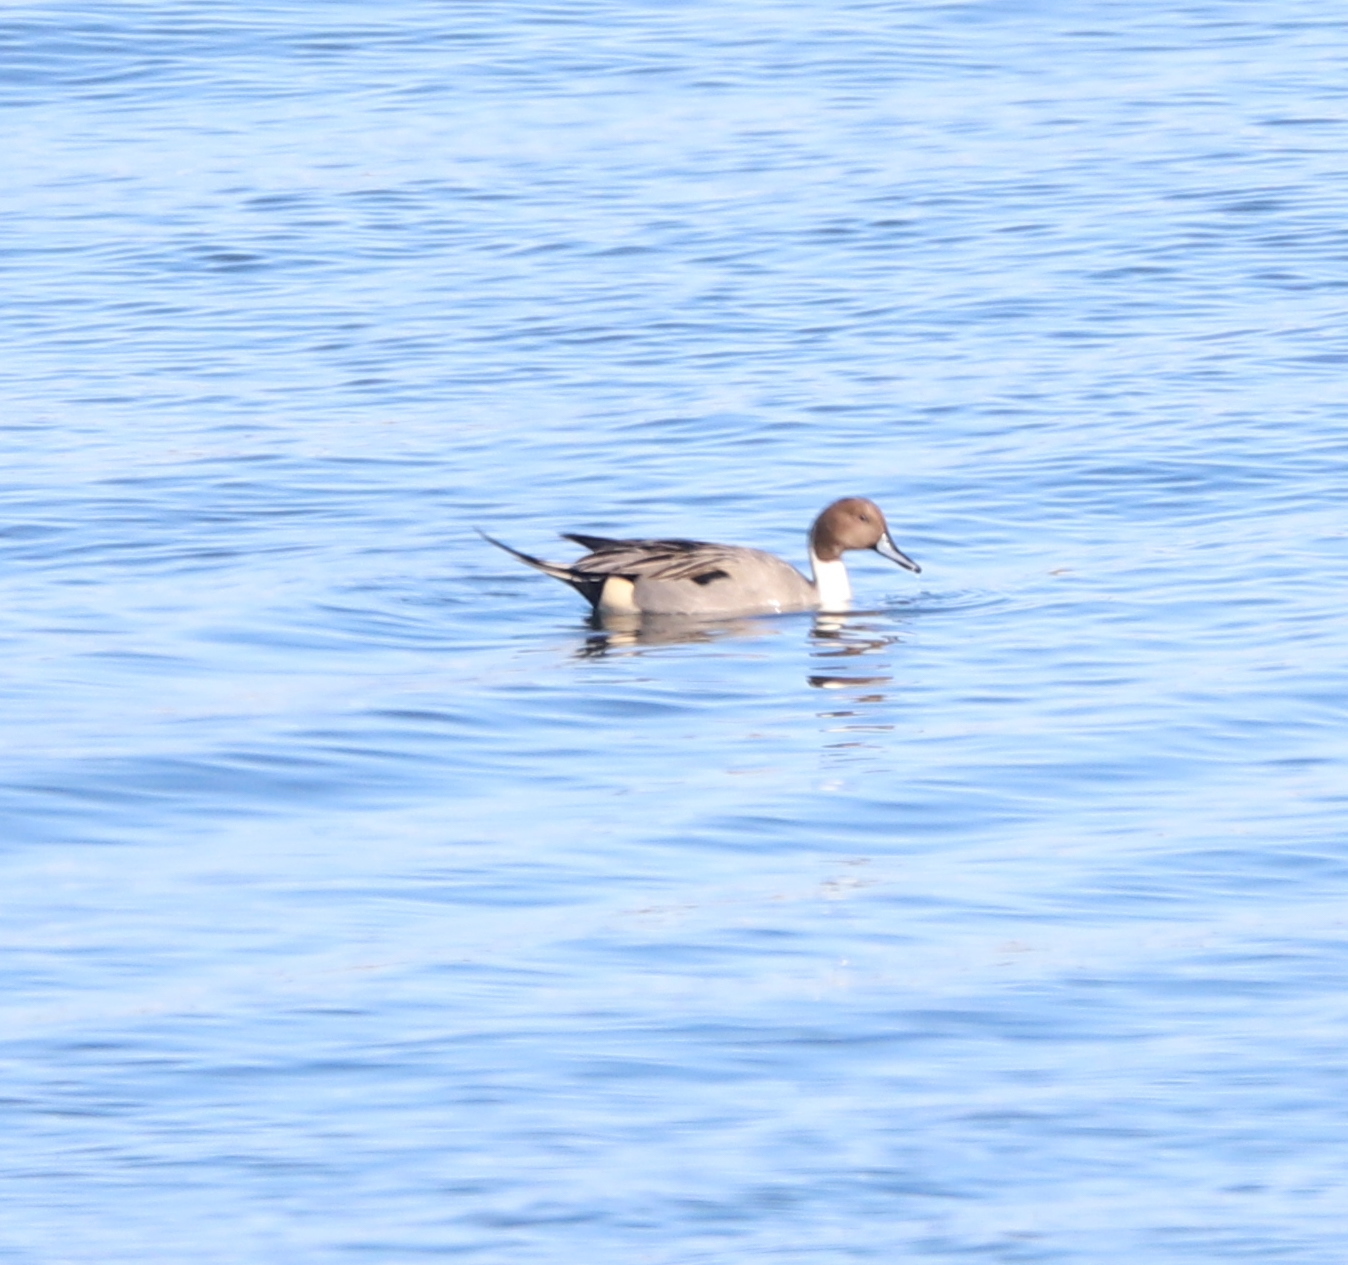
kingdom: Animalia
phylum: Chordata
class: Aves
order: Anseriformes
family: Anatidae
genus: Anas
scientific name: Anas acuta
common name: Northern pintail
